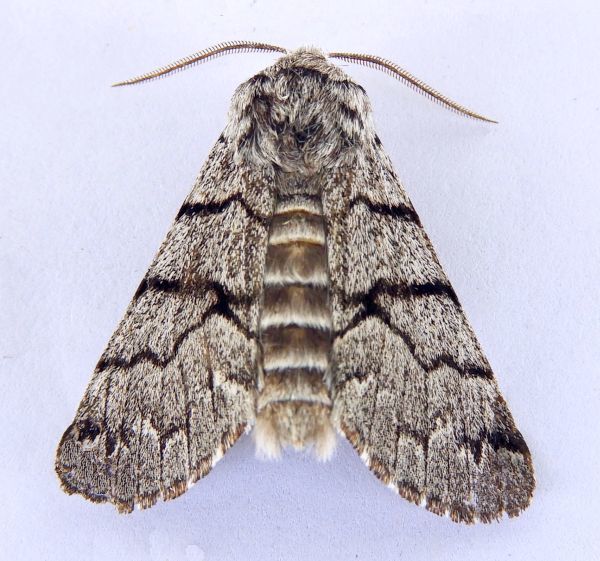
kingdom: Animalia
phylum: Arthropoda
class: Insecta
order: Lepidoptera
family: Noctuidae
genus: Panthea
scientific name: Panthea greyi
